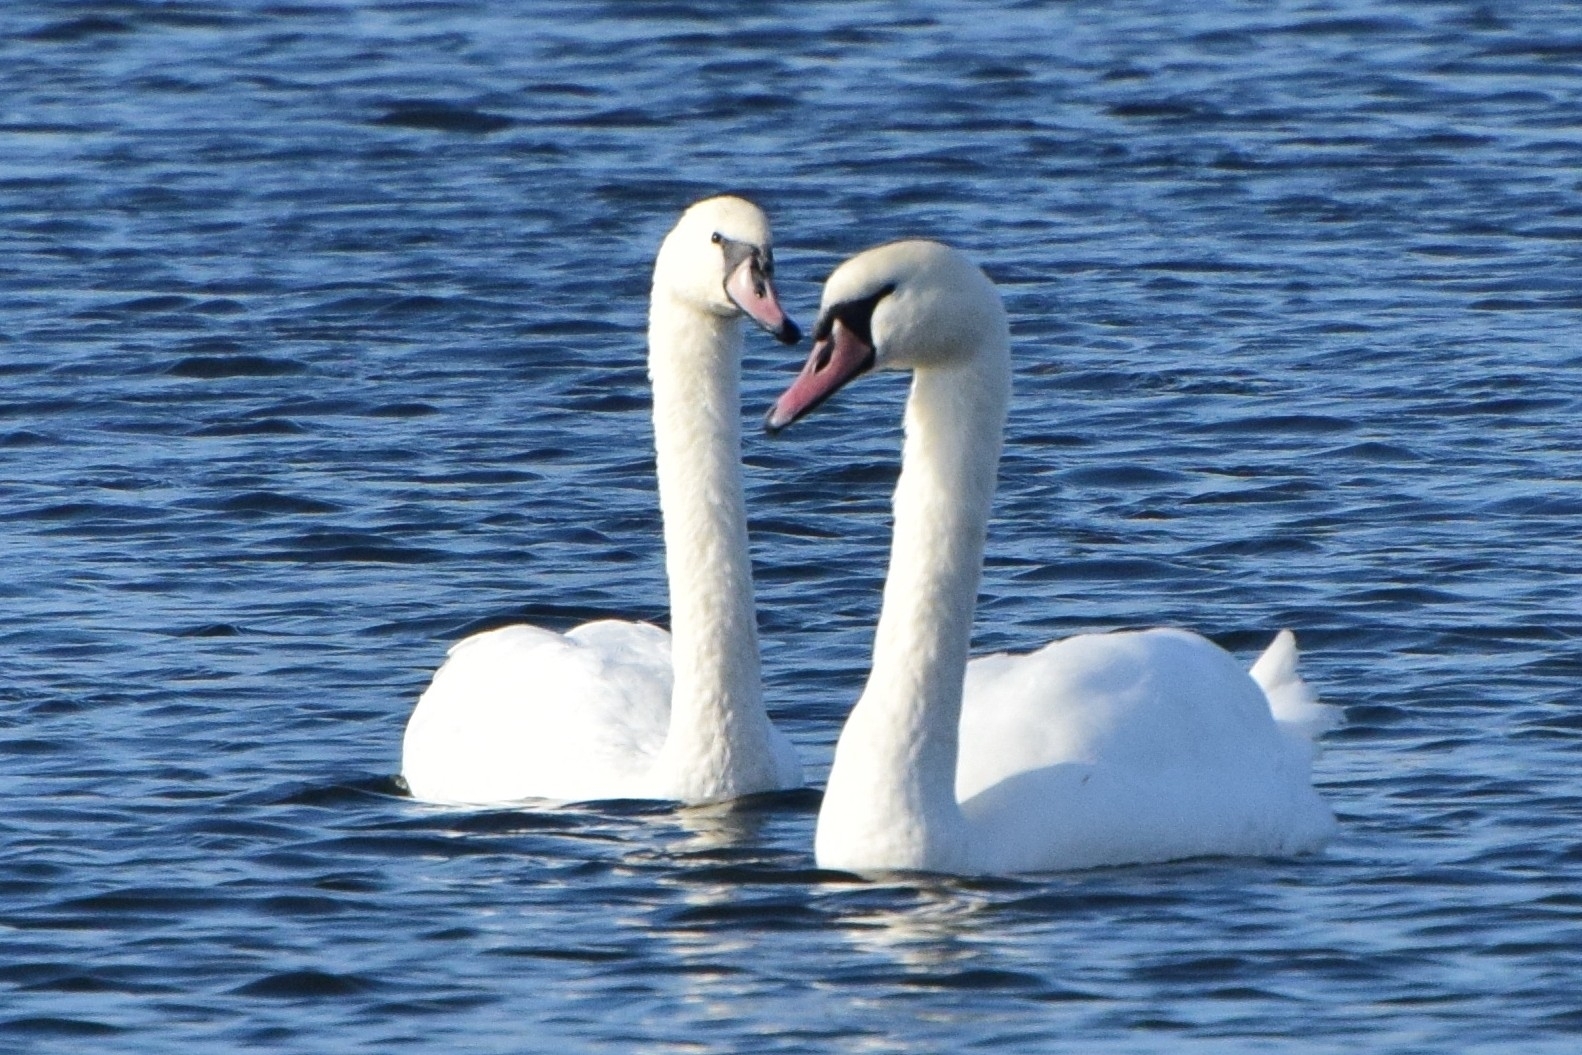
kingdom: Animalia
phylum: Chordata
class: Aves
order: Anseriformes
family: Anatidae
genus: Cygnus
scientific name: Cygnus olor
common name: Mute swan
